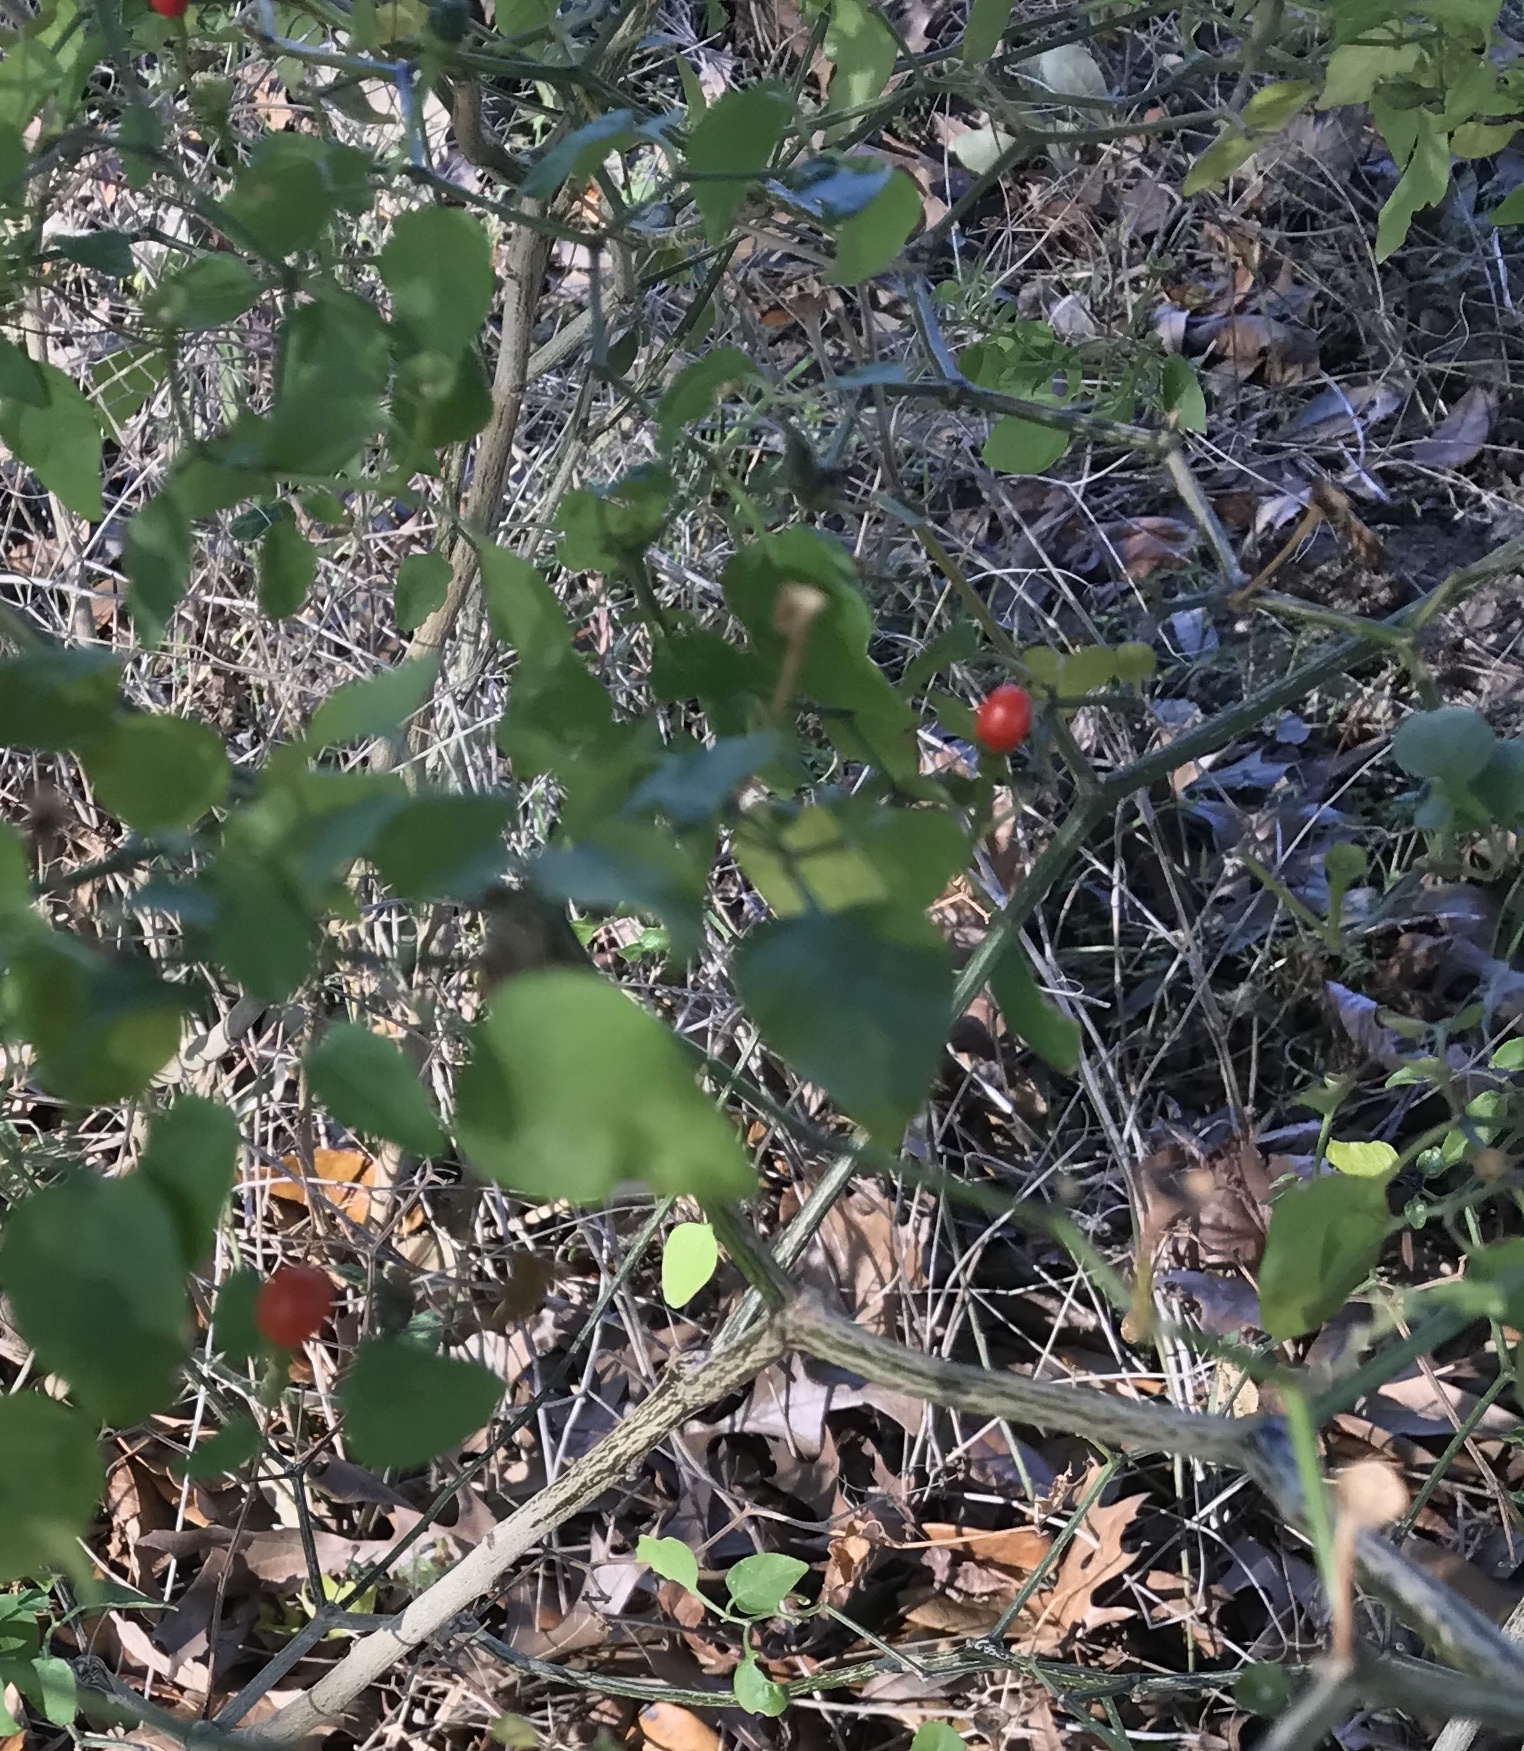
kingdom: Plantae
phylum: Tracheophyta
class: Magnoliopsida
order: Solanales
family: Solanaceae
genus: Capsicum
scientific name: Capsicum annuum
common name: Sweet pepper
